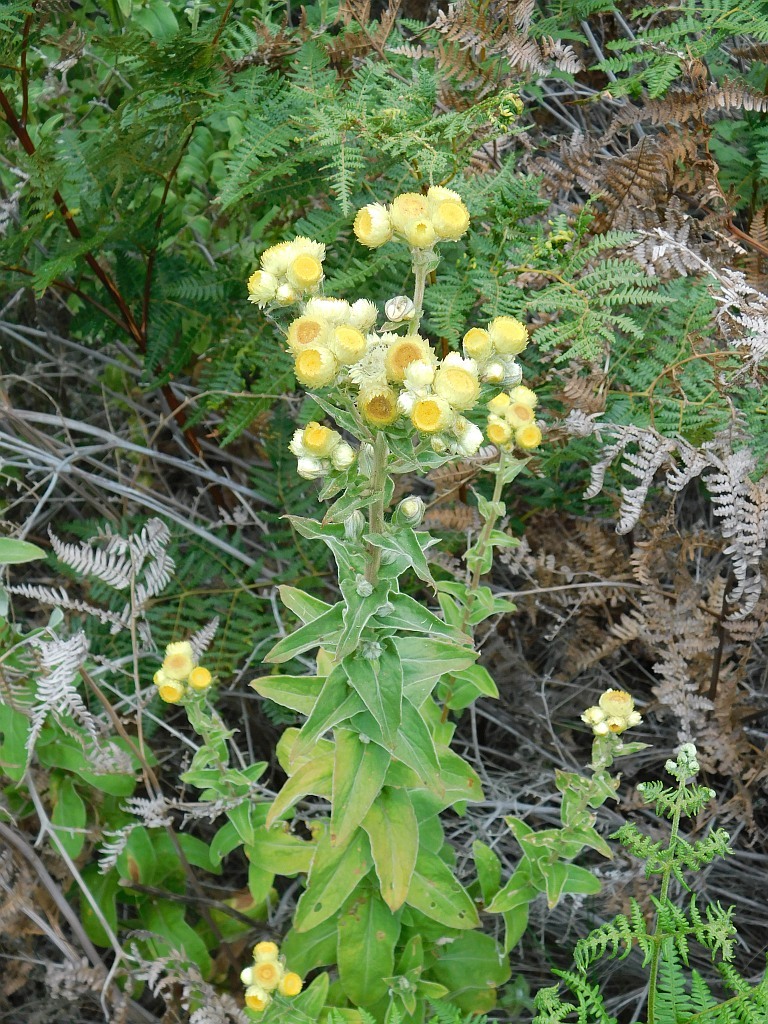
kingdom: Plantae
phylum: Tracheophyta
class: Magnoliopsida
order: Asterales
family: Asteraceae
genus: Helichrysum
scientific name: Helichrysum foetidum
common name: Stinking everlasting
